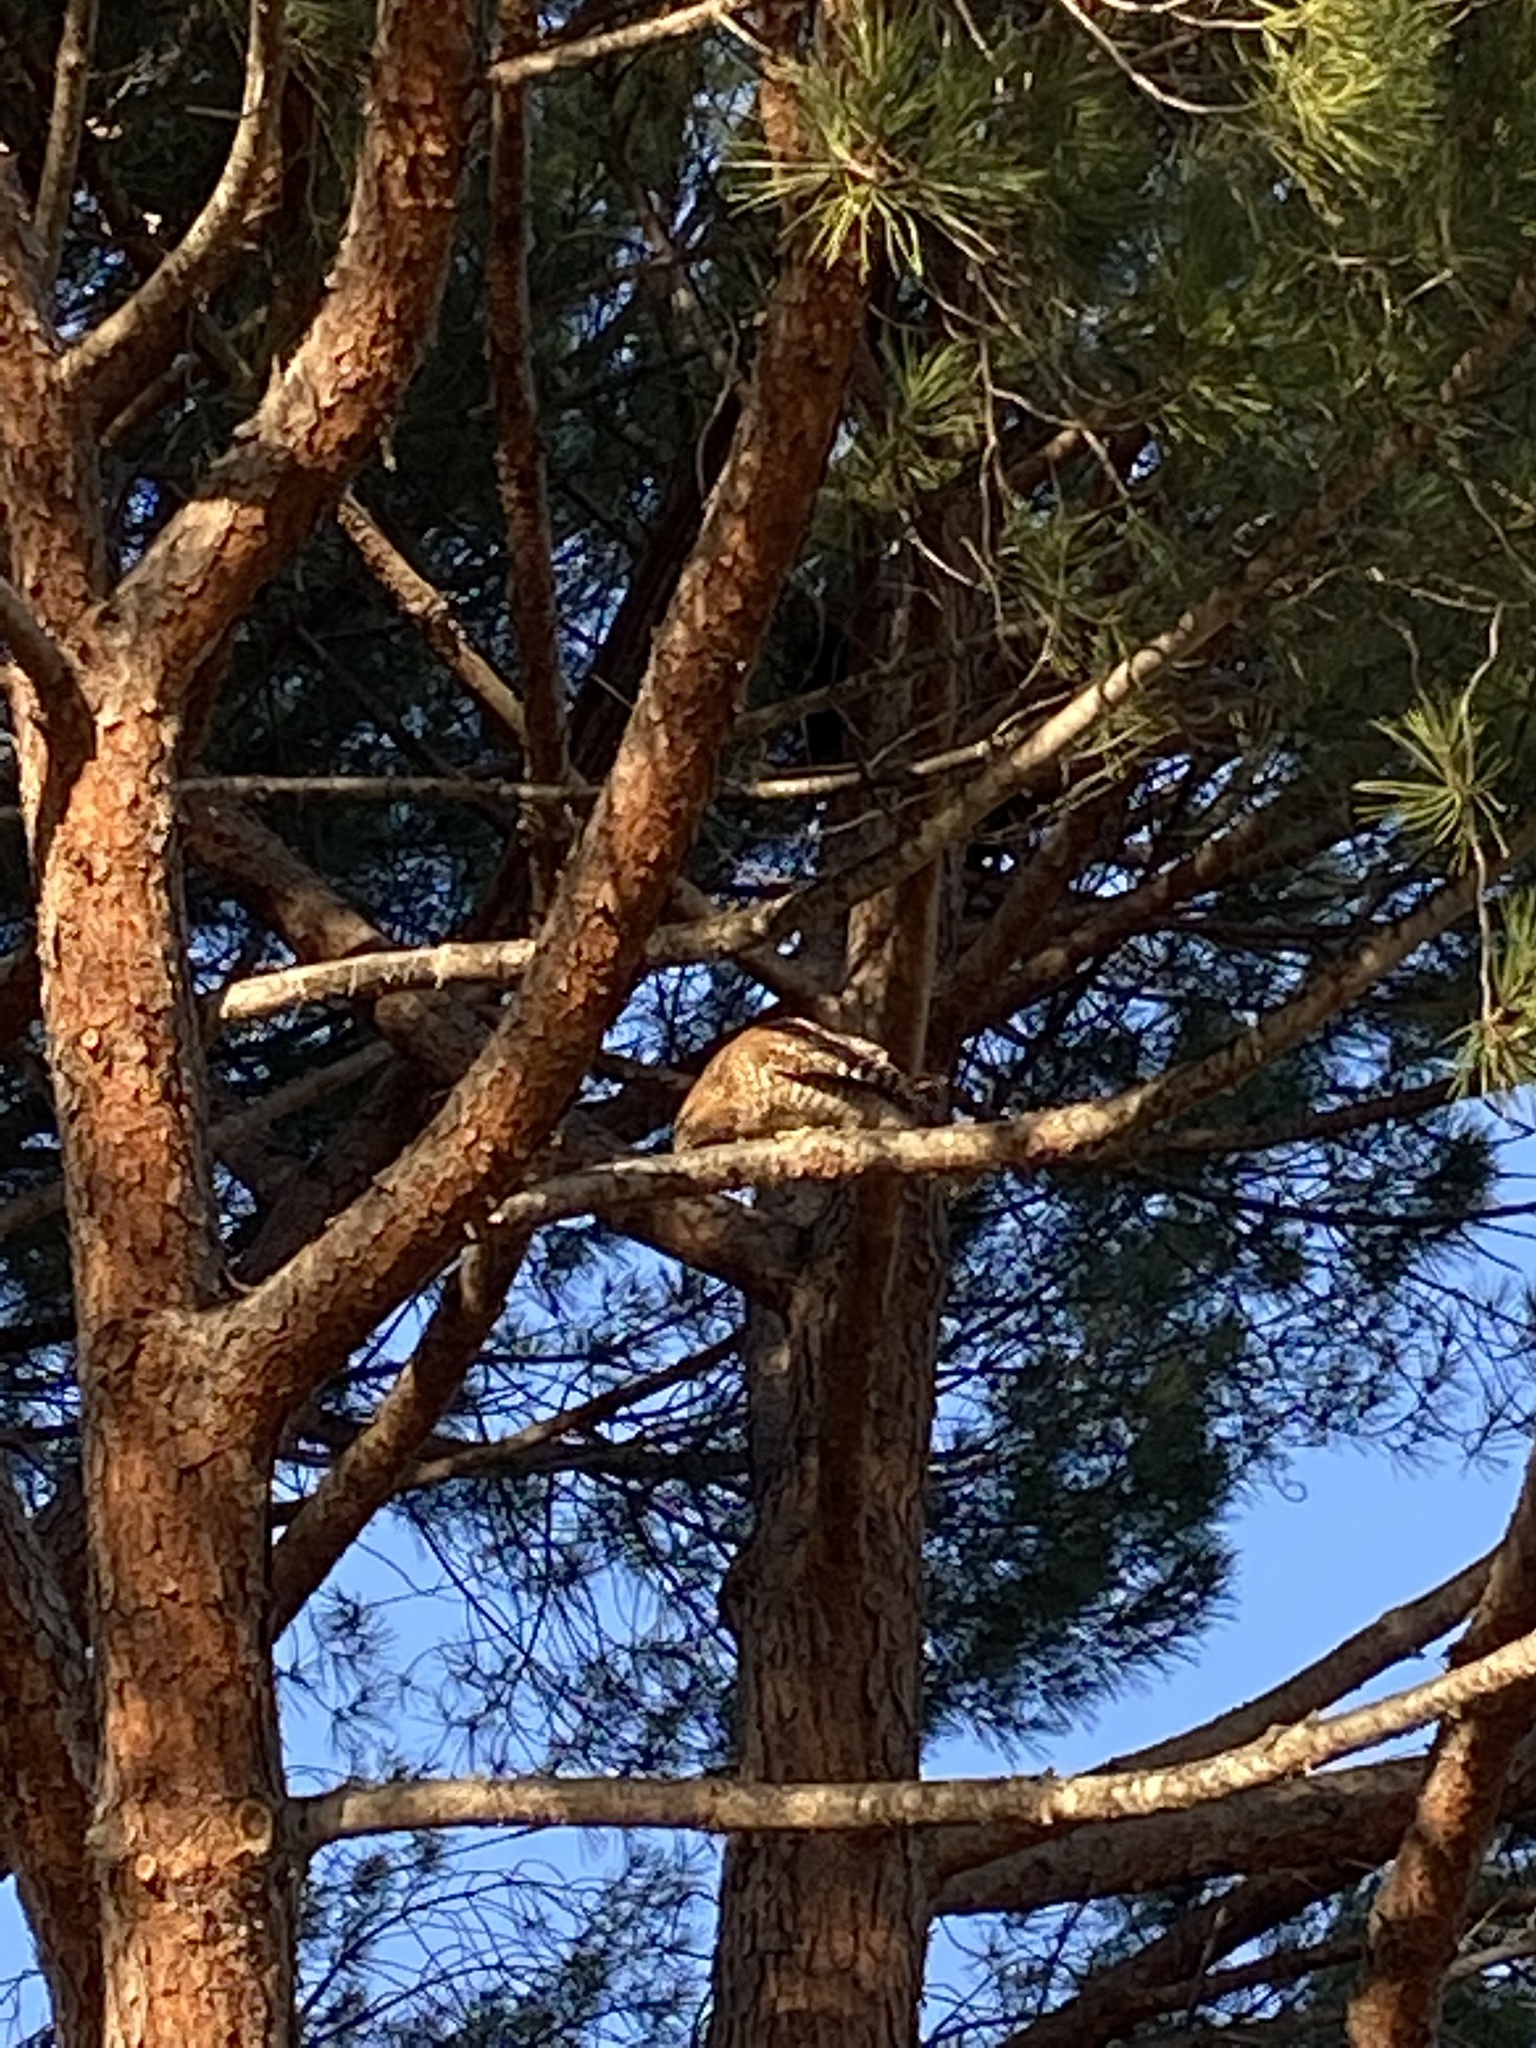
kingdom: Animalia
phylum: Chordata
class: Aves
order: Accipitriformes
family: Accipitridae
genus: Buteo
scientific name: Buteo lineatus
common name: Red-shouldered hawk
